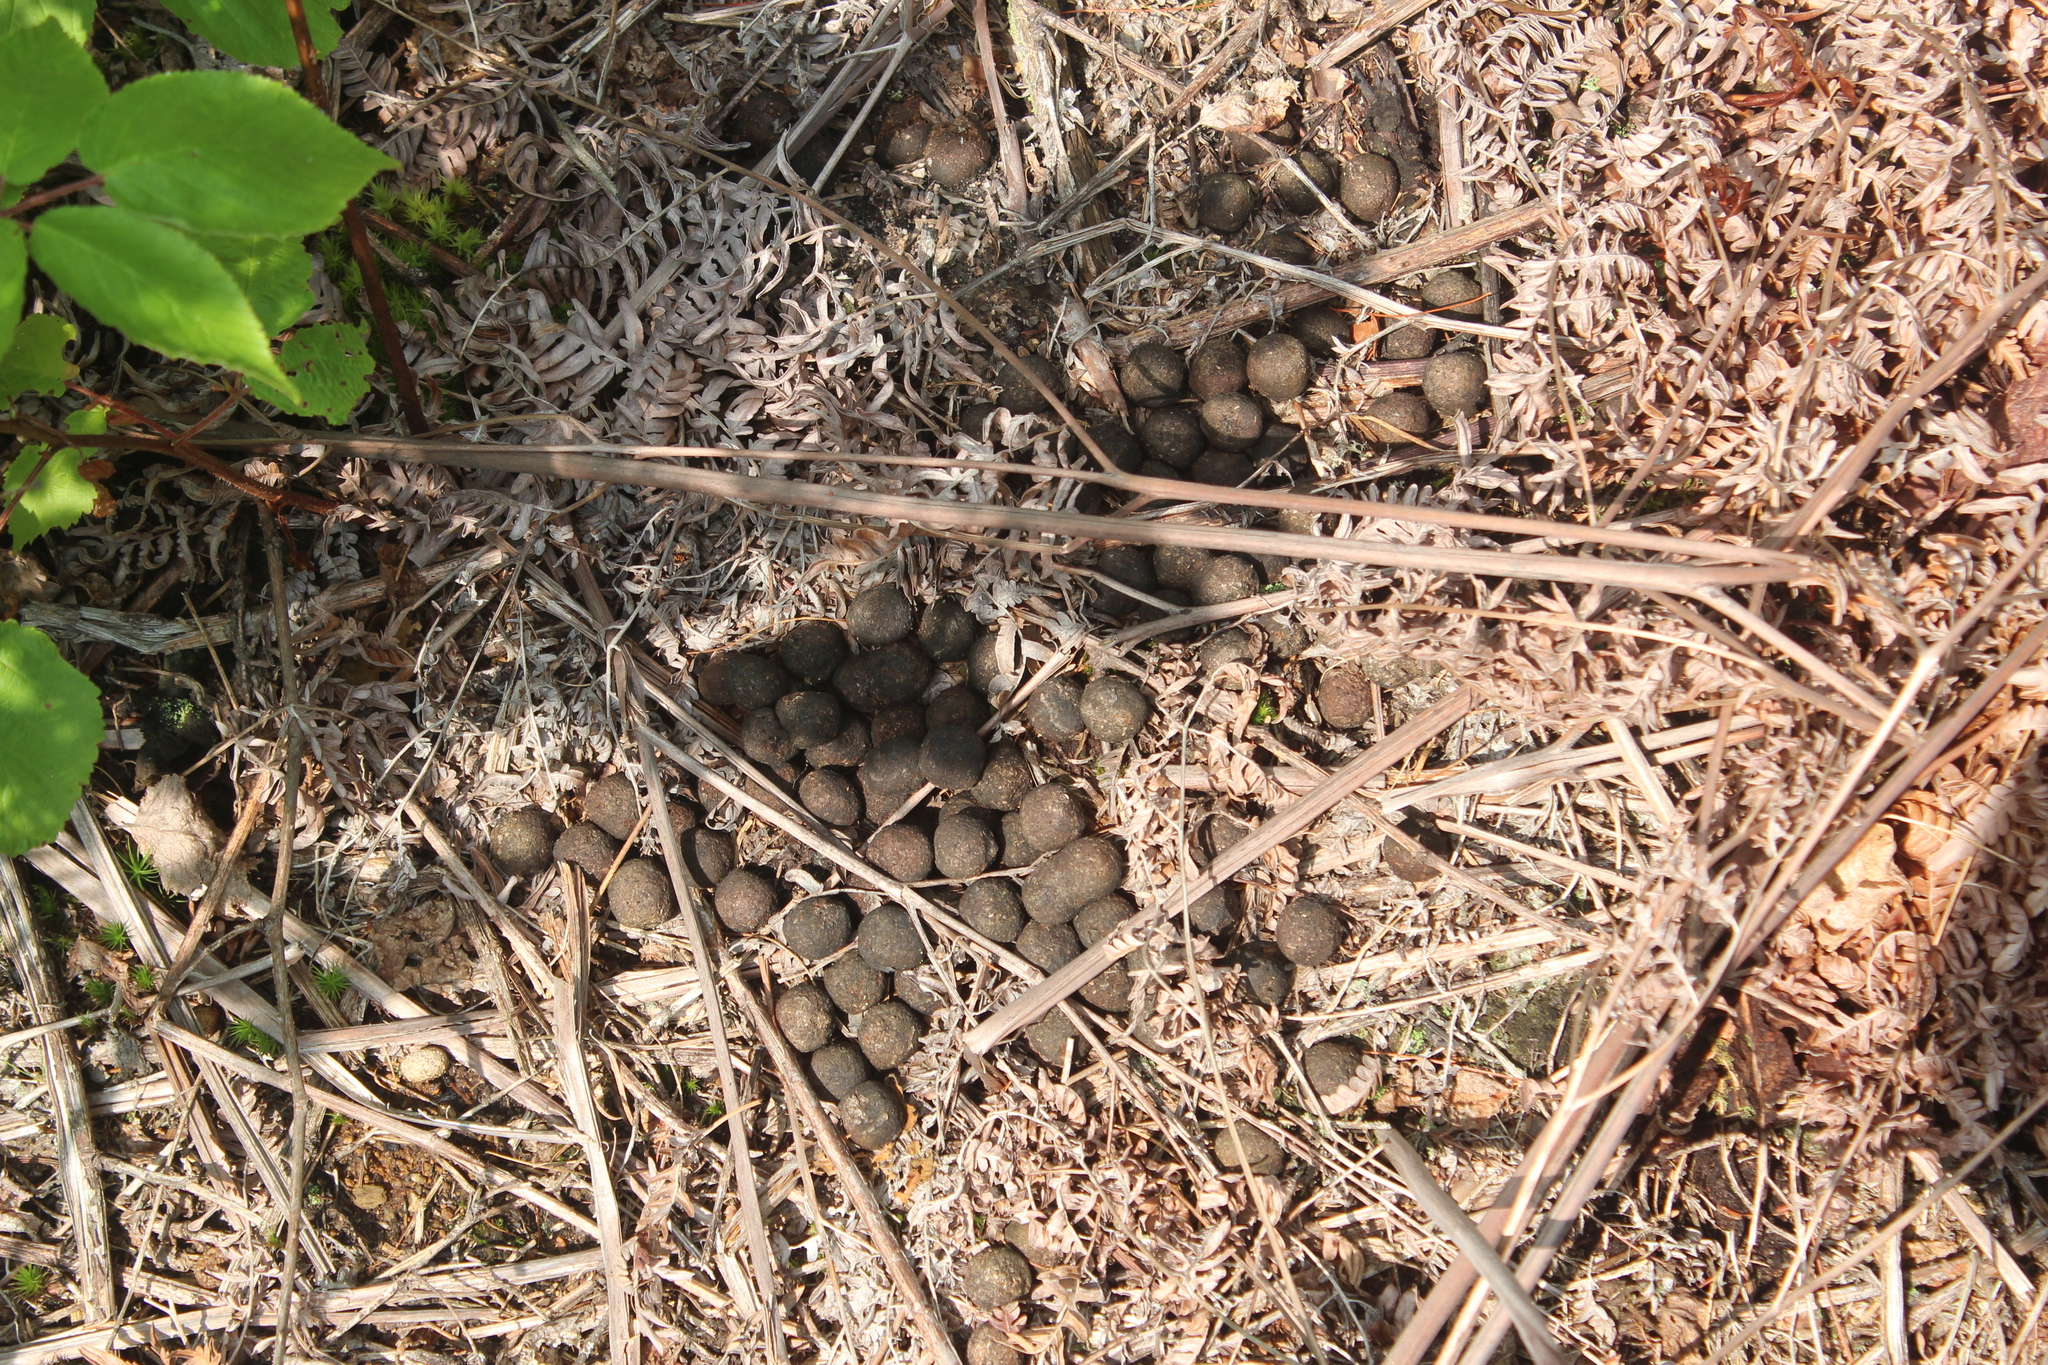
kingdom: Animalia
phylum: Chordata
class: Mammalia
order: Artiodactyla
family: Cervidae
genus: Alces
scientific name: Alces alces
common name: Moose
